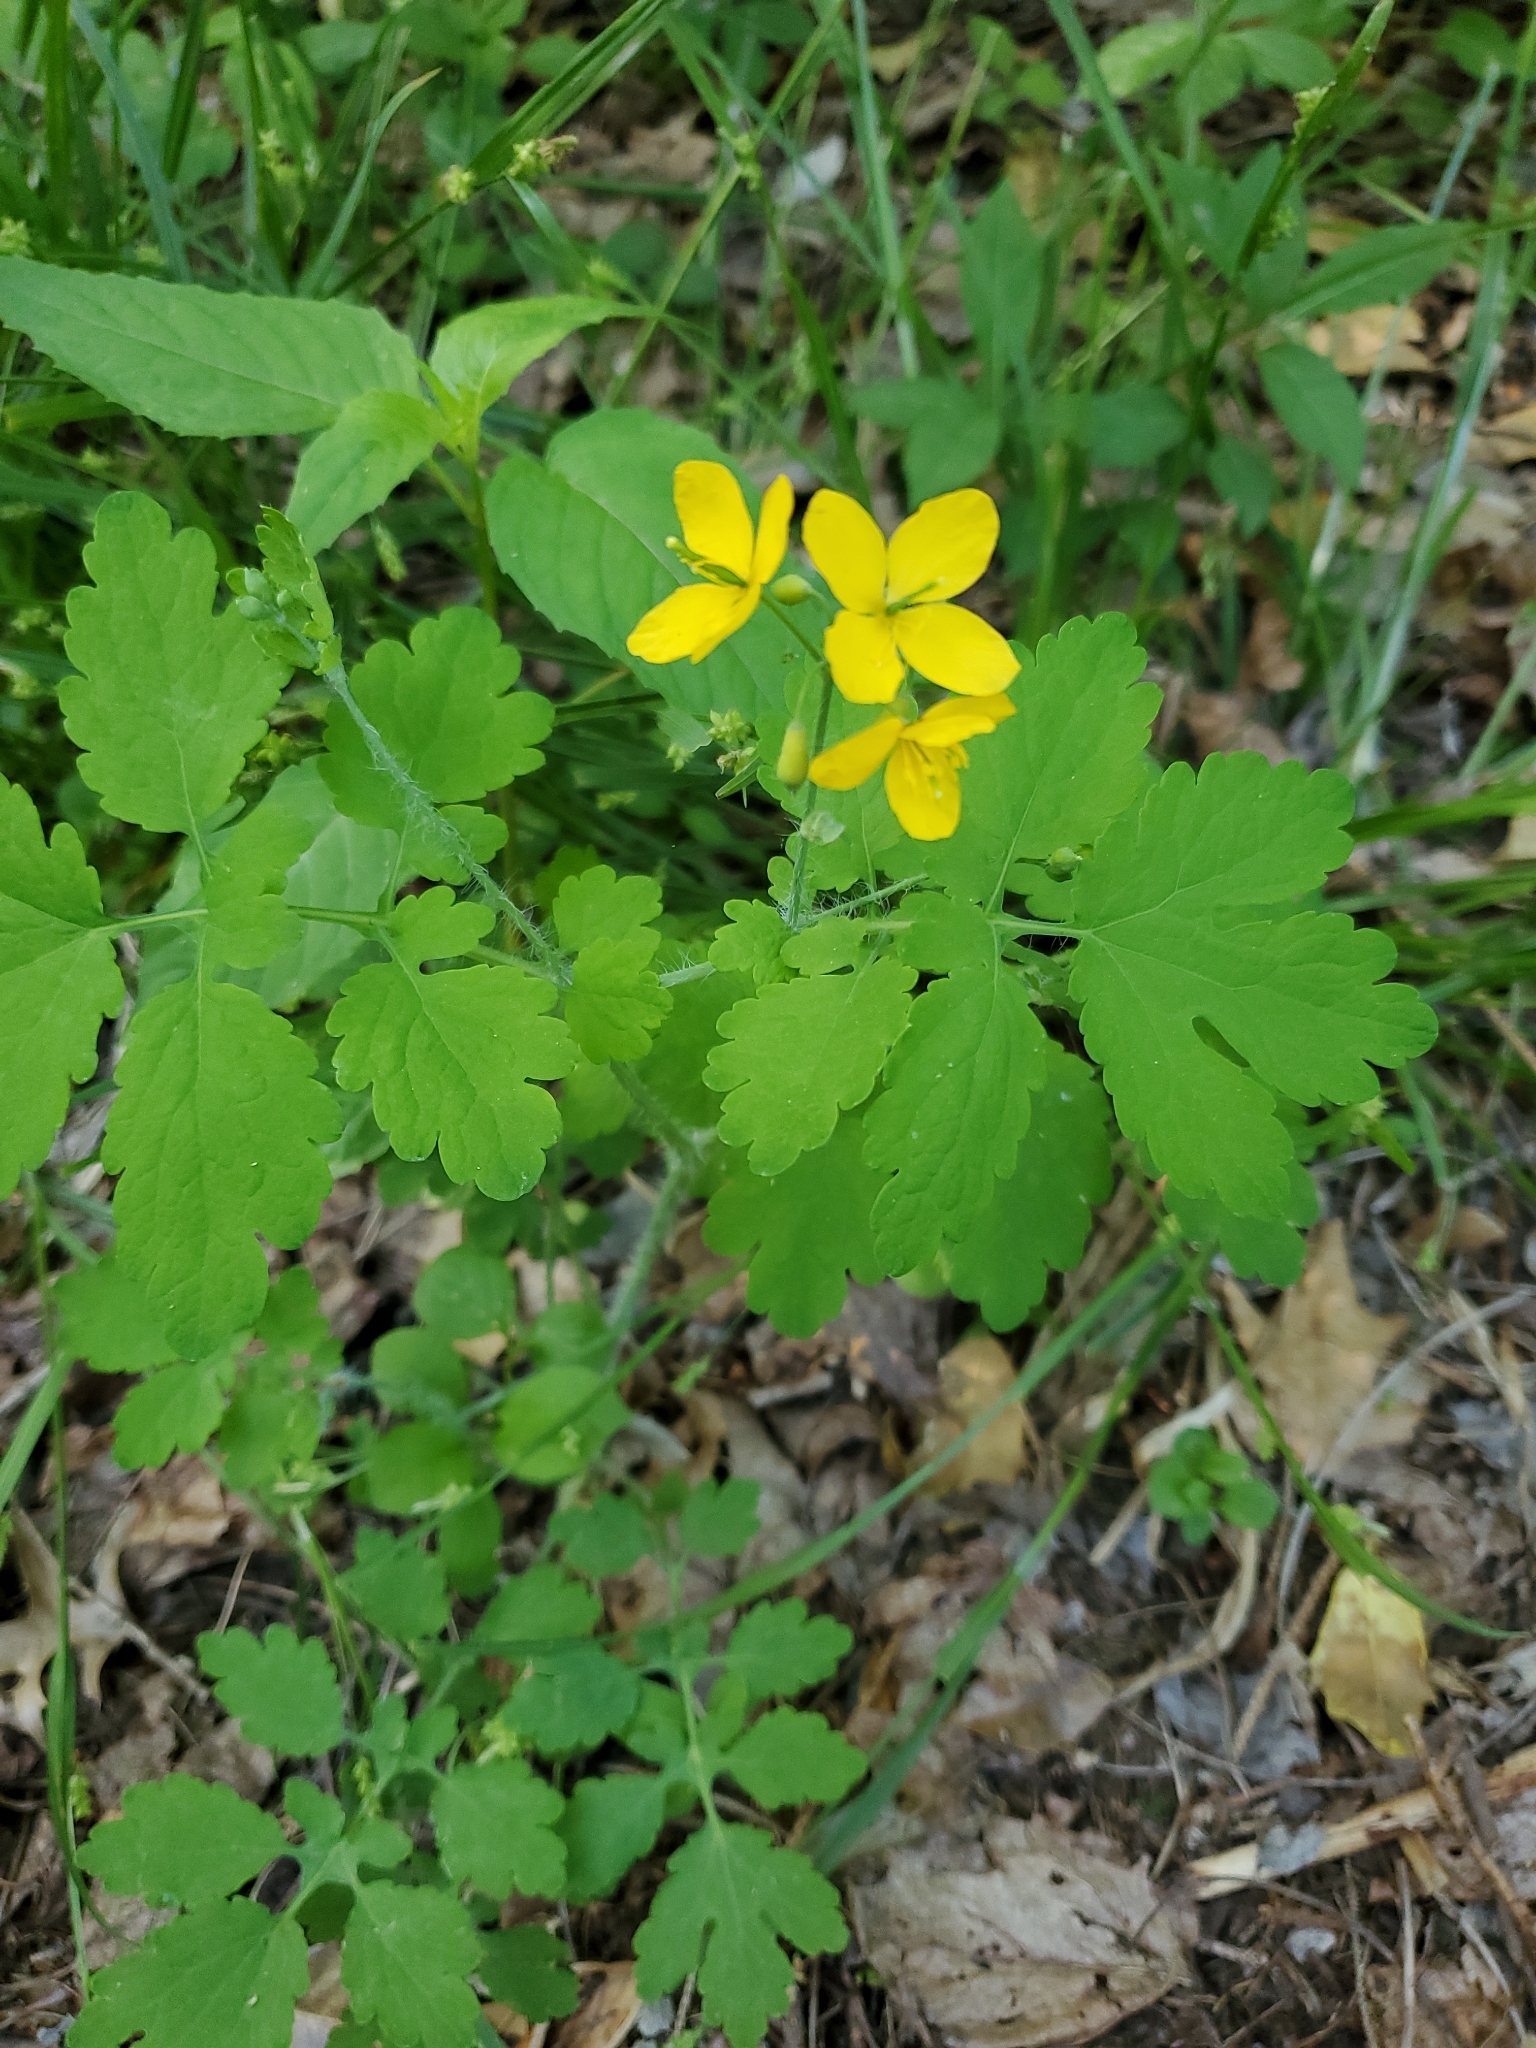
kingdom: Plantae
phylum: Tracheophyta
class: Magnoliopsida
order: Ranunculales
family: Papaveraceae
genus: Chelidonium
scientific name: Chelidonium majus
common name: Greater celandine
